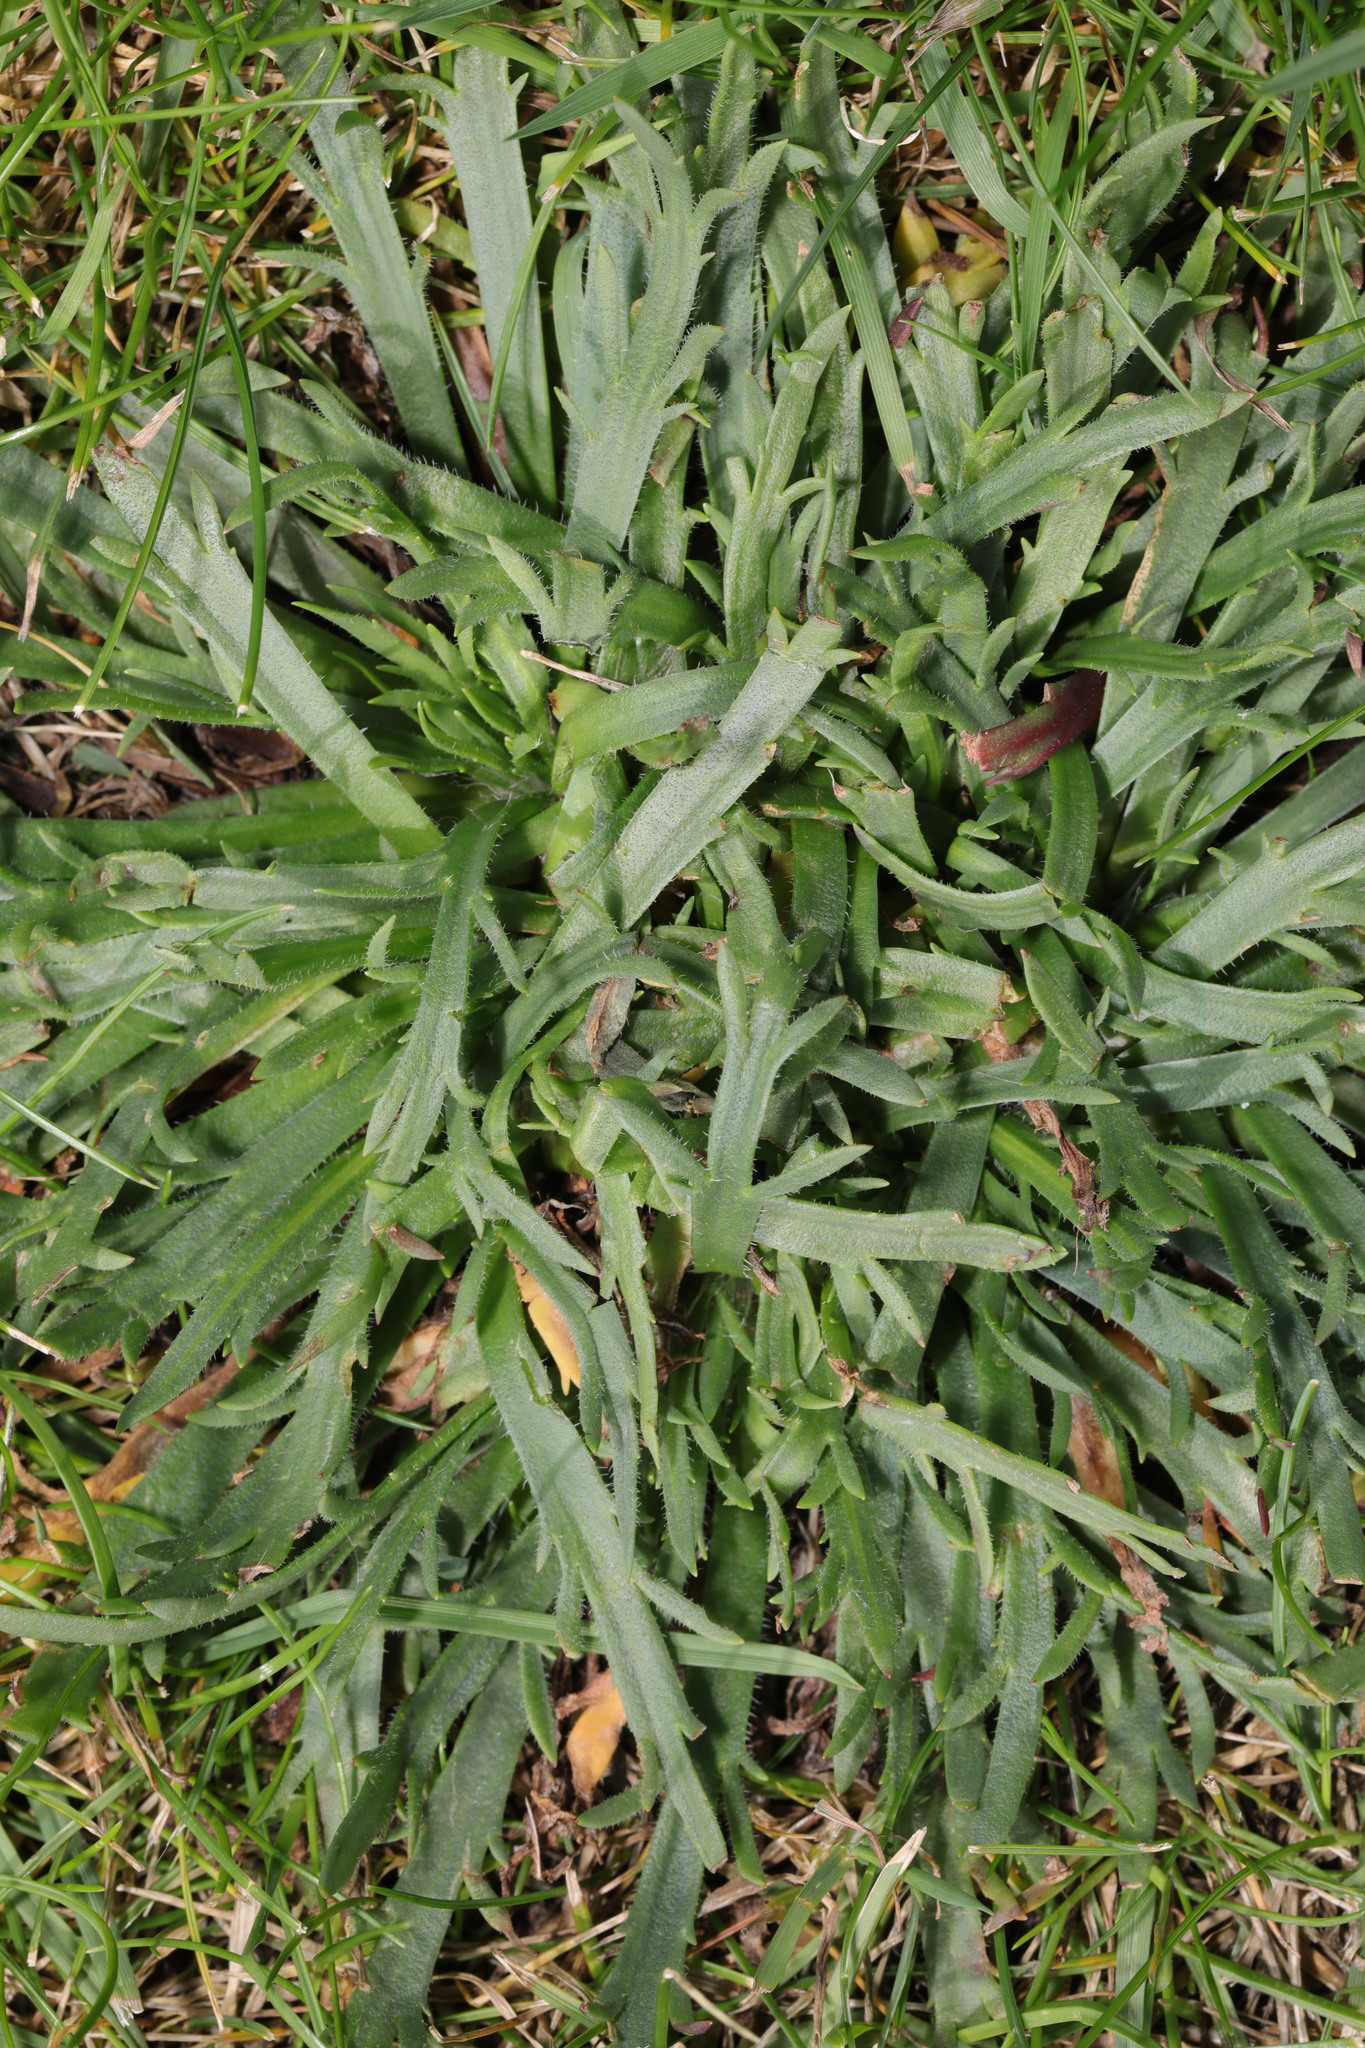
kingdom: Plantae
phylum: Tracheophyta
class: Magnoliopsida
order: Lamiales
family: Plantaginaceae
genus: Plantago
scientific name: Plantago coronopus
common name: Buck's-horn plantain
